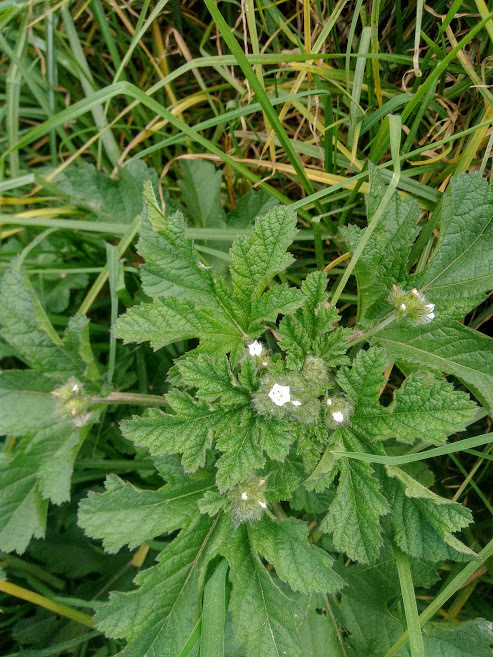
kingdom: Plantae
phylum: Tracheophyta
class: Magnoliopsida
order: Malvales
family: Malvaceae
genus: Fuertesimalva
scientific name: Fuertesimalva limensis
